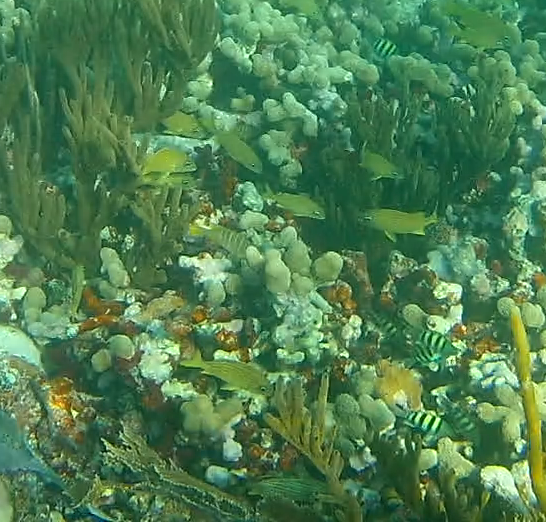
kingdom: Animalia
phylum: Chordata
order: Perciformes
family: Haemulidae
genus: Haemulon
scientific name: Haemulon flavolineatum
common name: French grunt
